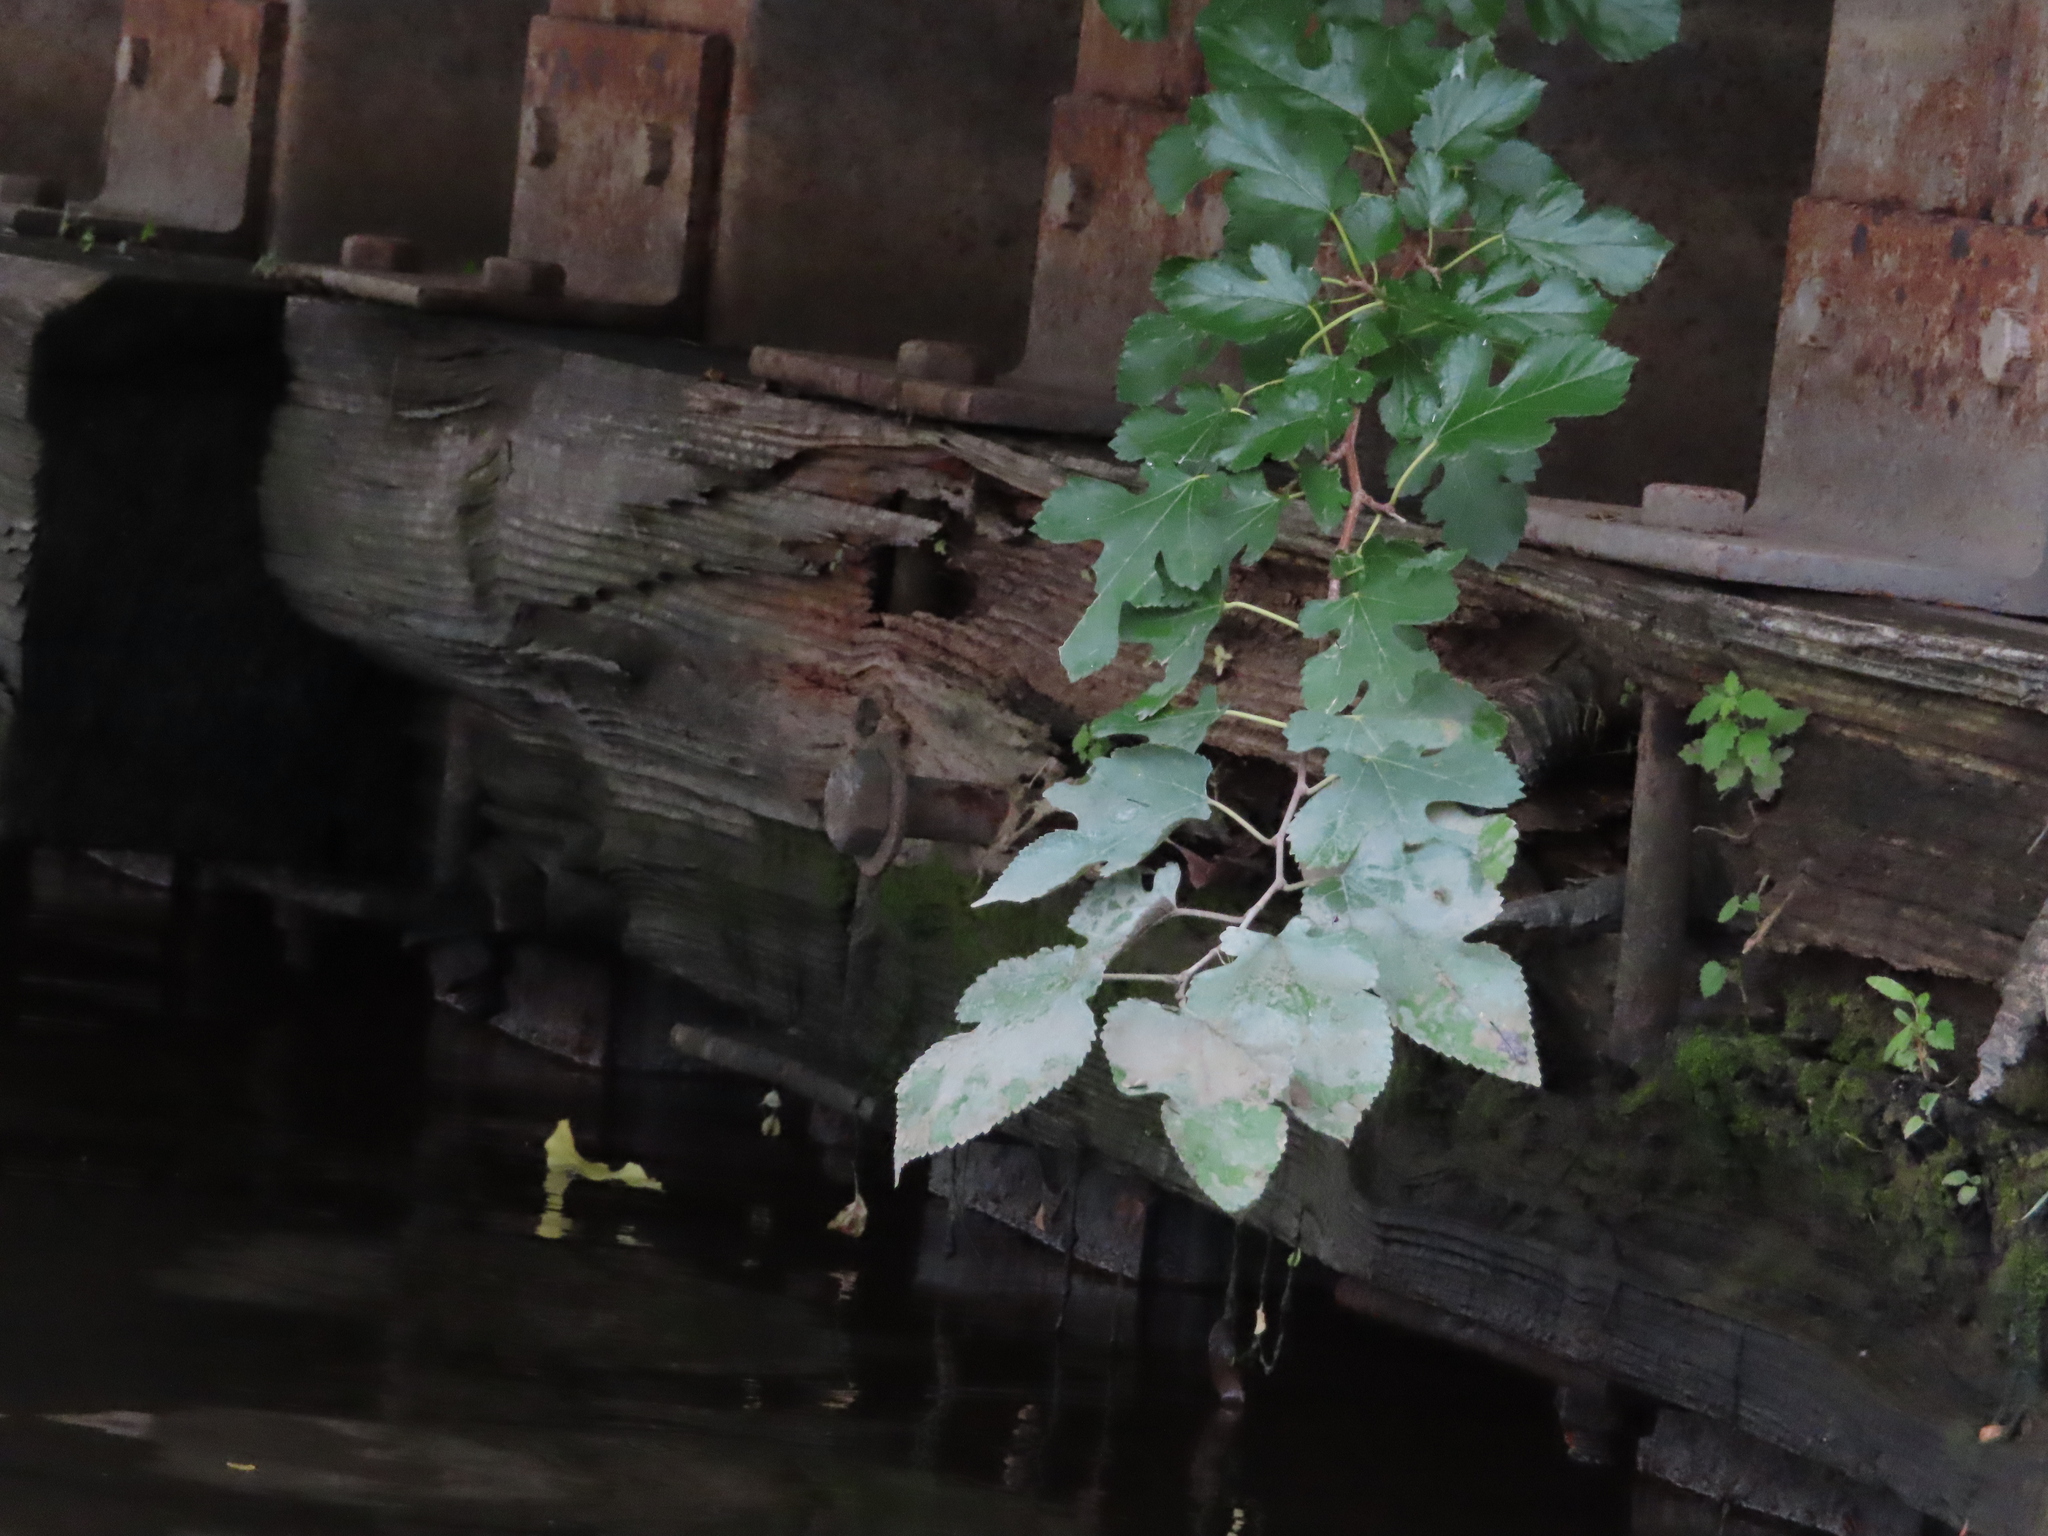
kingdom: Plantae
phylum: Tracheophyta
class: Magnoliopsida
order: Rosales
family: Moraceae
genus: Morus
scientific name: Morus alba
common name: White mulberry
